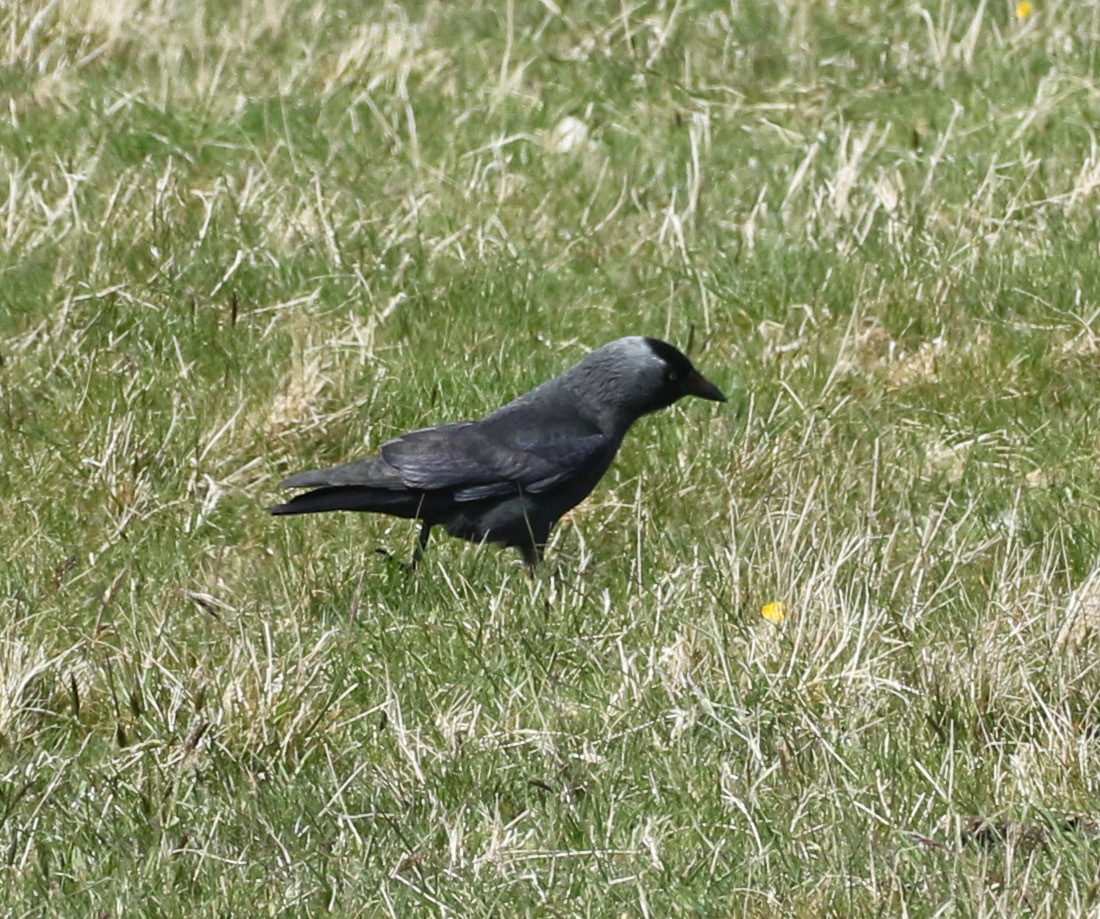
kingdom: Animalia
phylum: Chordata
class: Aves
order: Passeriformes
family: Corvidae
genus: Coloeus
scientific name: Coloeus monedula
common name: Western jackdaw
